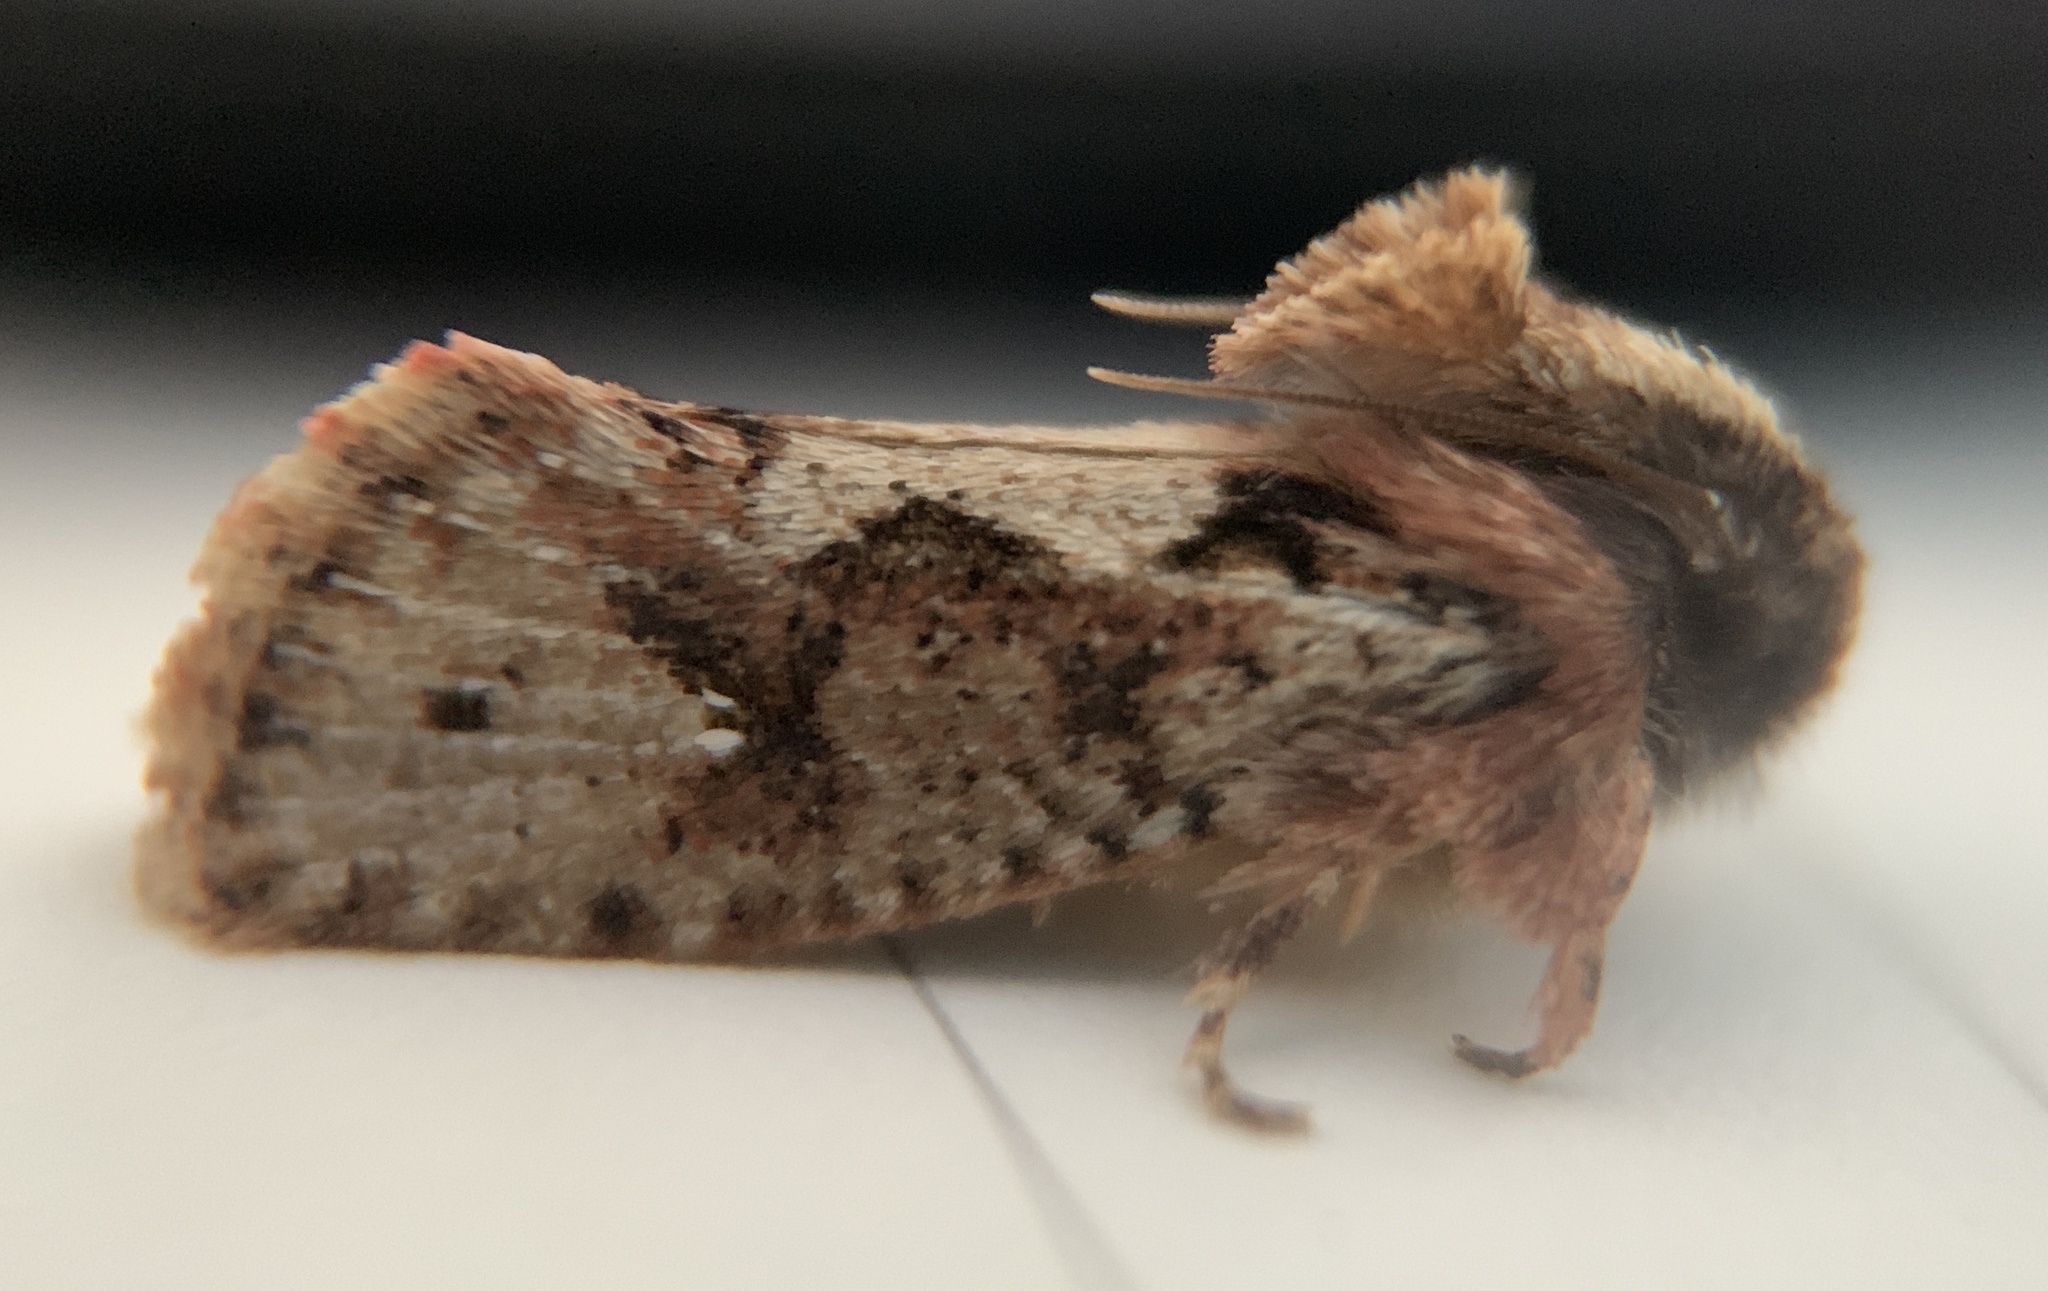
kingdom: Animalia
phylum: Arthropoda
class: Insecta
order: Lepidoptera
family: Tineidae
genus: Acrolophus
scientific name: Acrolophus walsinghami
